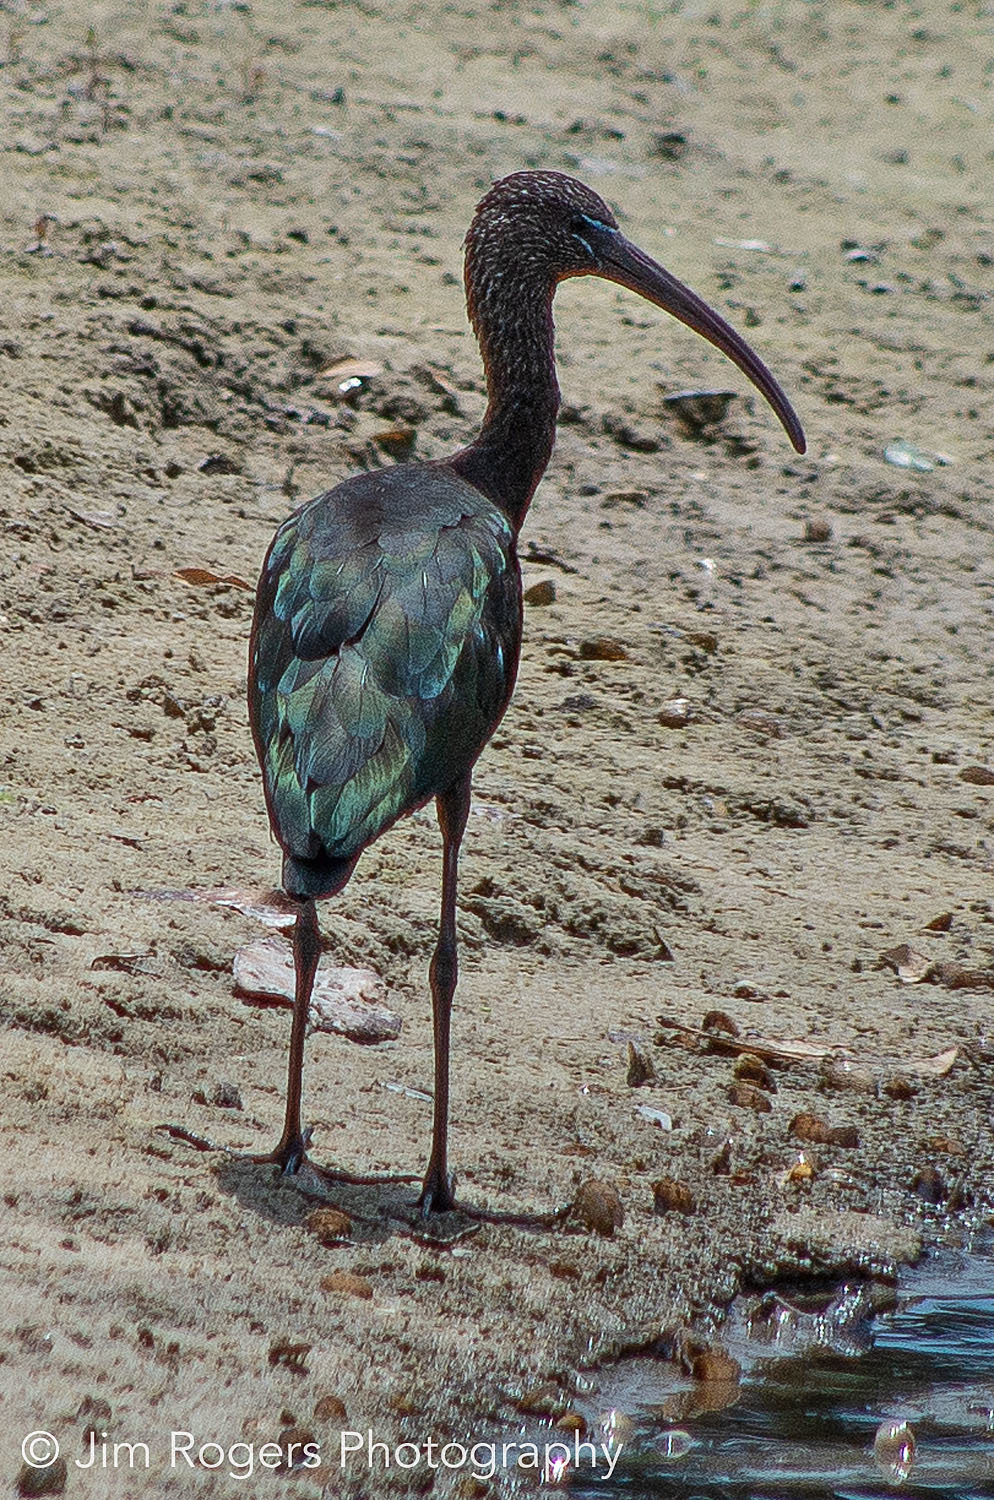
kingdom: Animalia
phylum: Chordata
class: Aves
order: Pelecaniformes
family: Threskiornithidae
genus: Plegadis
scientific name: Plegadis falcinellus
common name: Glossy ibis
